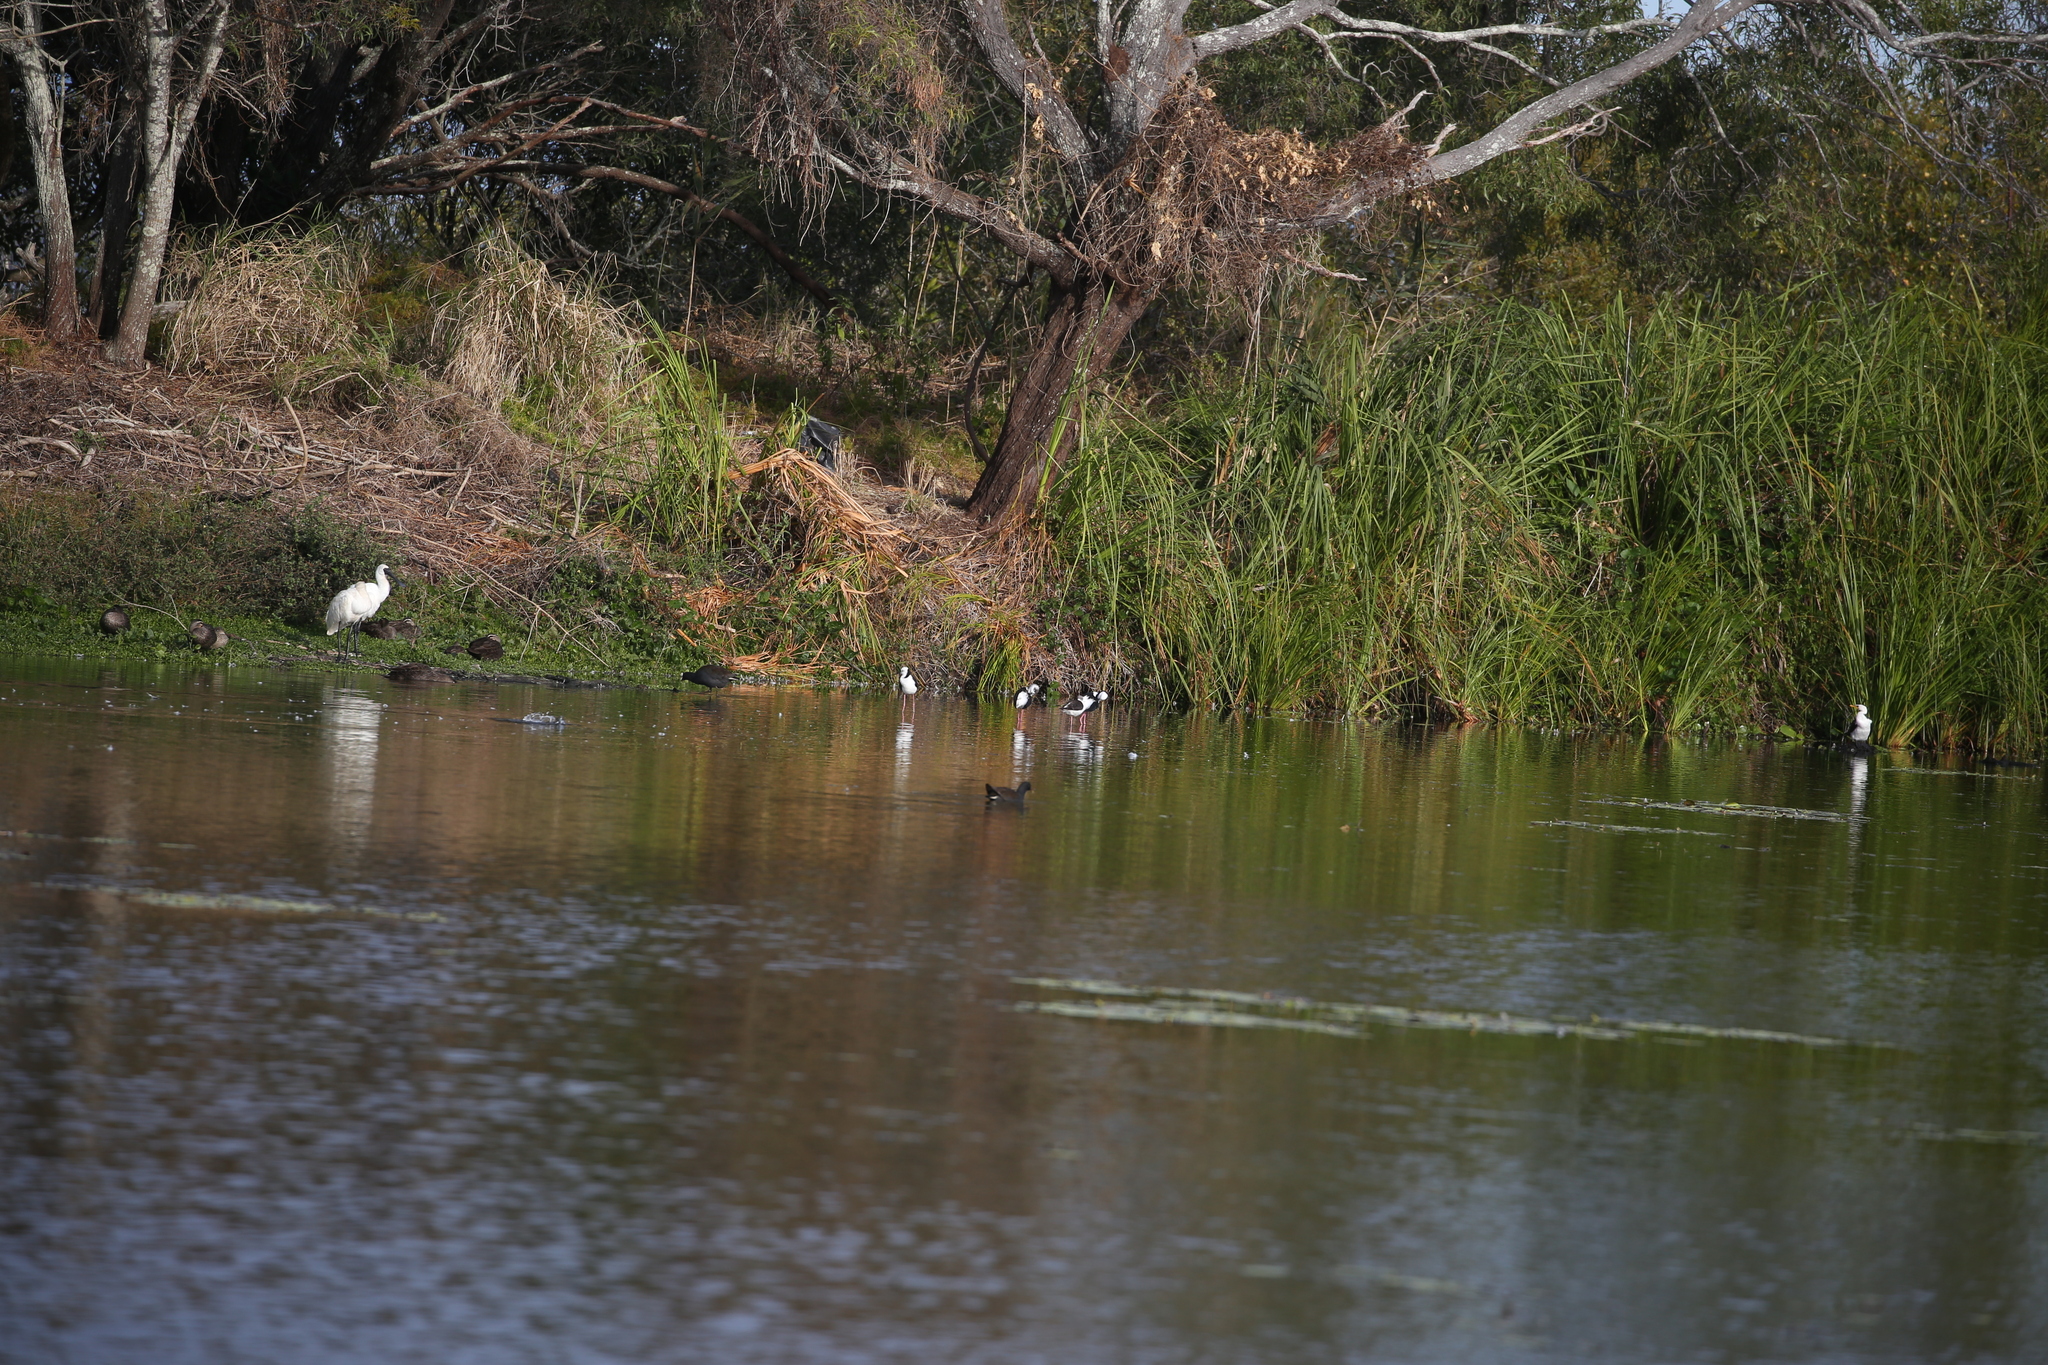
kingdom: Animalia
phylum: Chordata
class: Aves
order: Suliformes
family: Phalacrocoracidae
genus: Microcarbo
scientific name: Microcarbo melanoleucos
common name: Little pied cormorant
